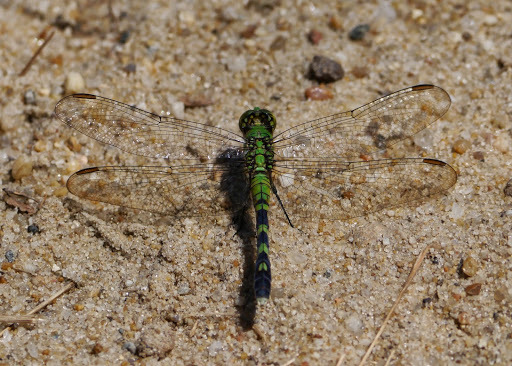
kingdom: Animalia
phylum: Arthropoda
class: Insecta
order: Odonata
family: Libellulidae
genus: Erythemis
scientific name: Erythemis simplicicollis
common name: Eastern pondhawk
